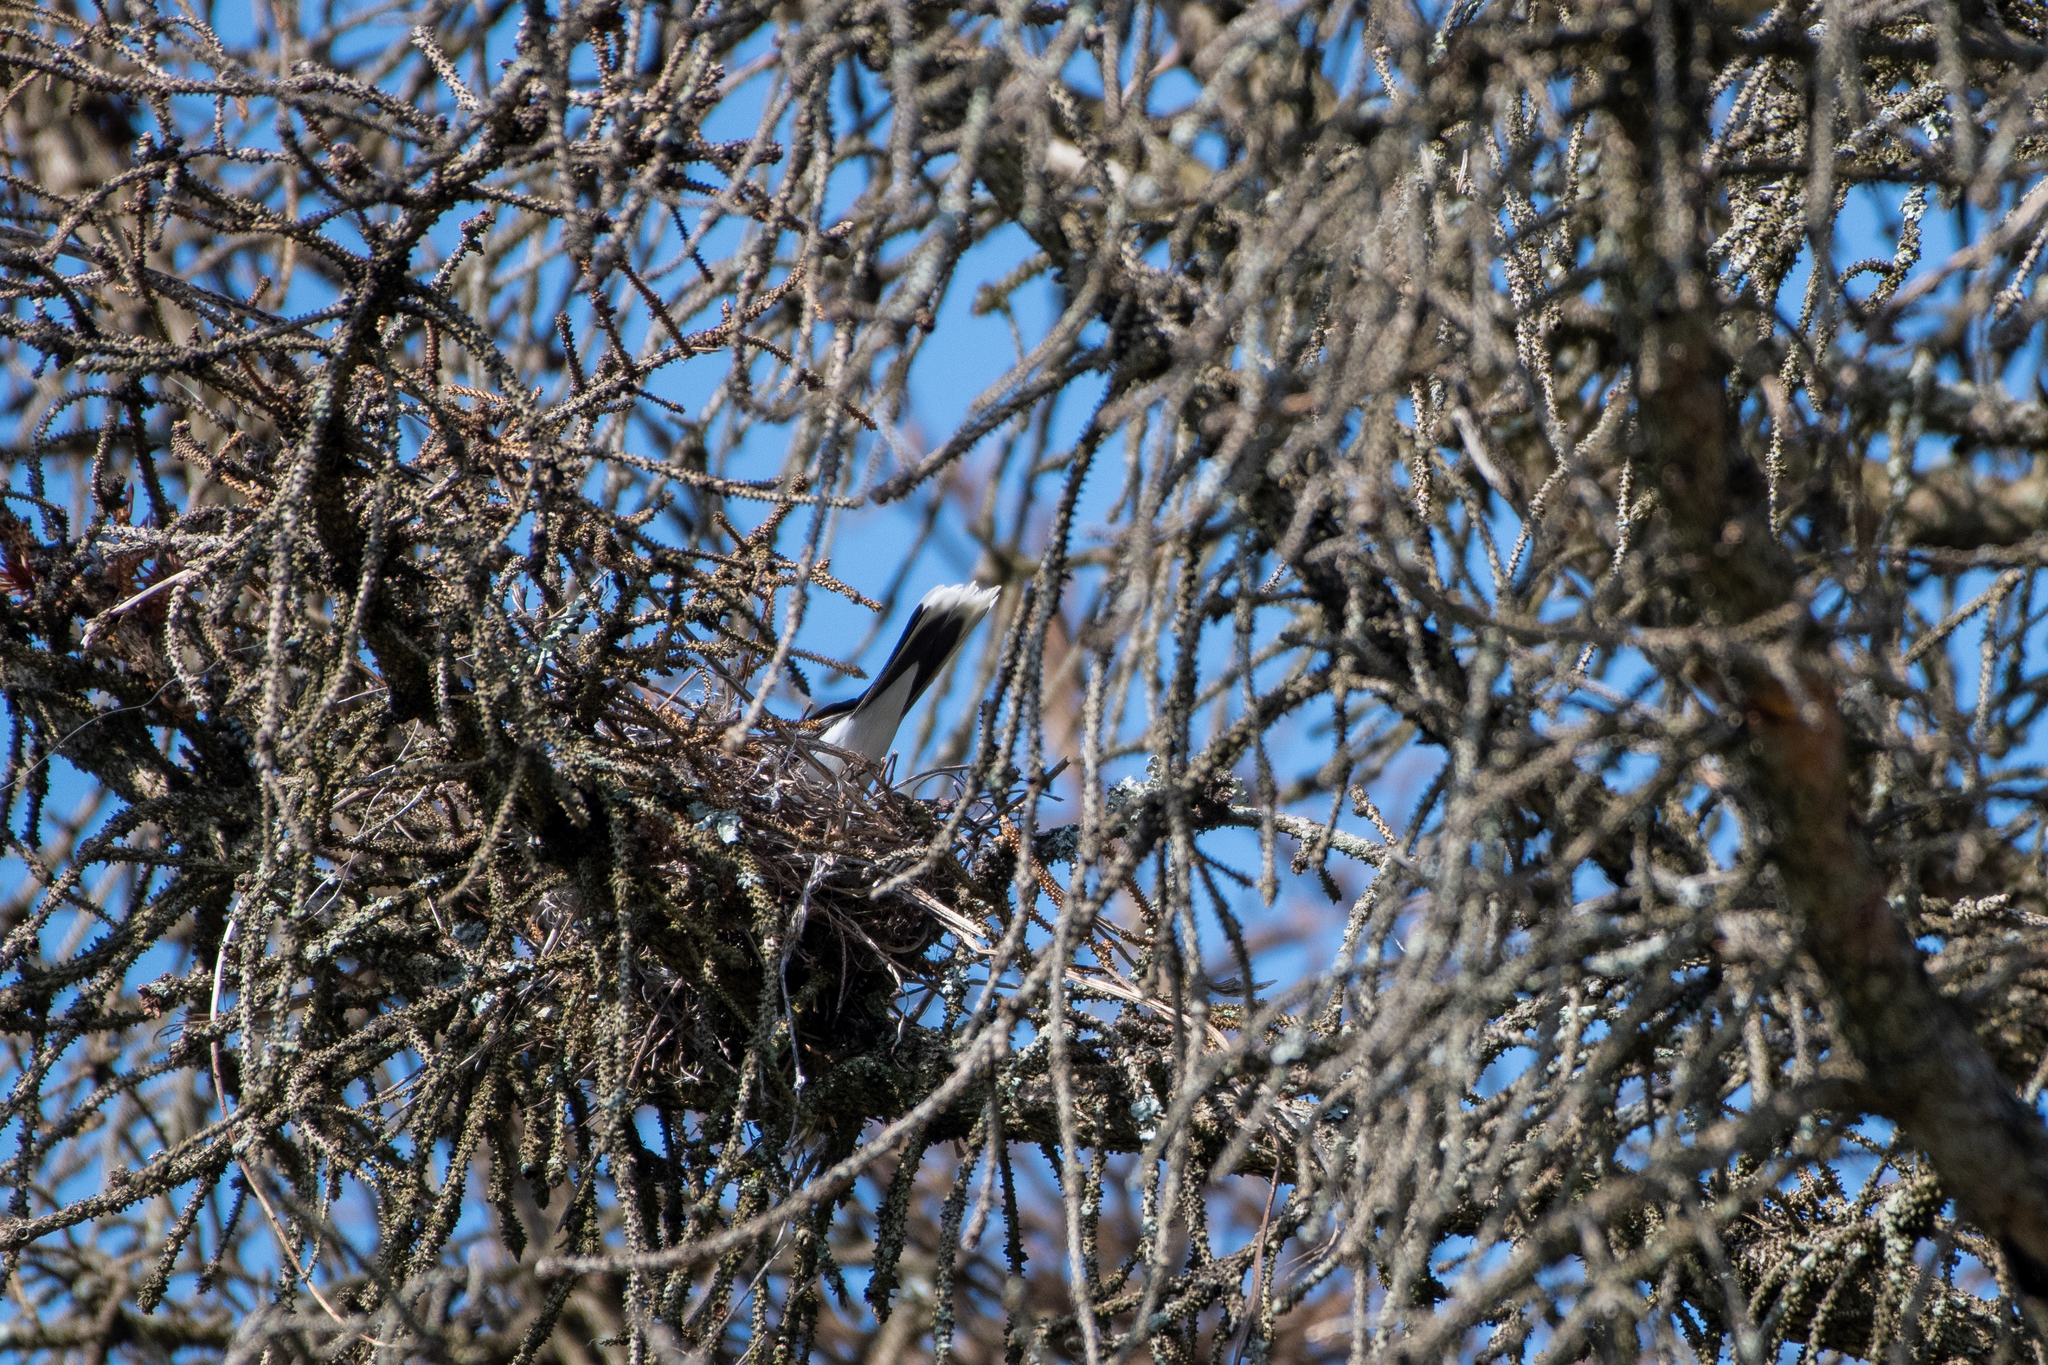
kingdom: Animalia
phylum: Chordata
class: Aves
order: Passeriformes
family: Tyrannidae
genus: Tyrannus
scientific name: Tyrannus tyrannus
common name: Eastern kingbird
